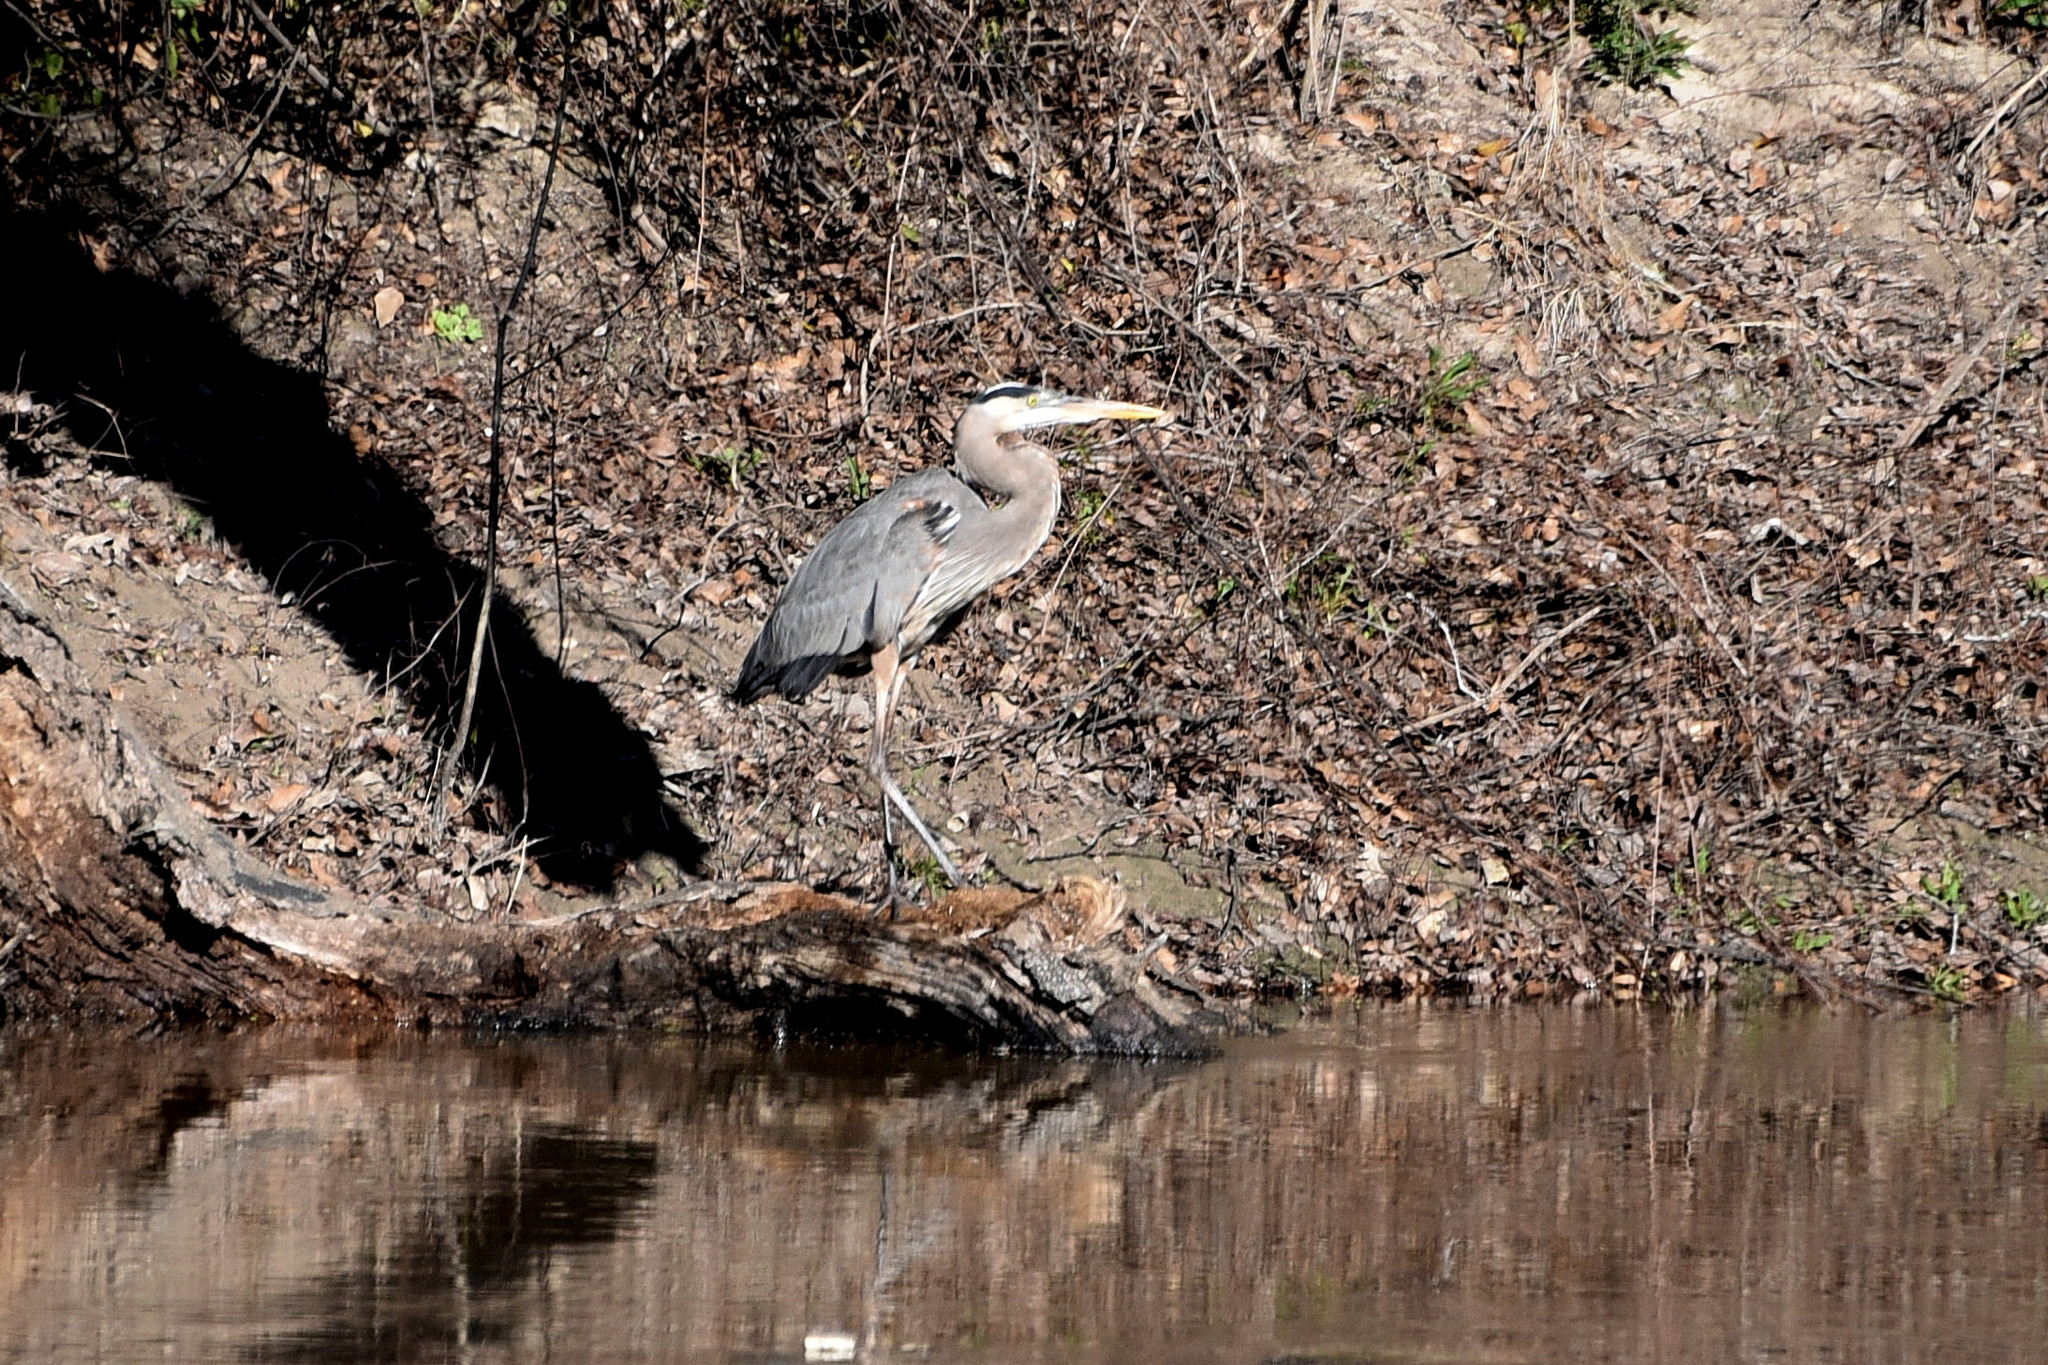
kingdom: Animalia
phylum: Chordata
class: Aves
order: Pelecaniformes
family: Ardeidae
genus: Ardea
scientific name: Ardea herodias
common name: Great blue heron
